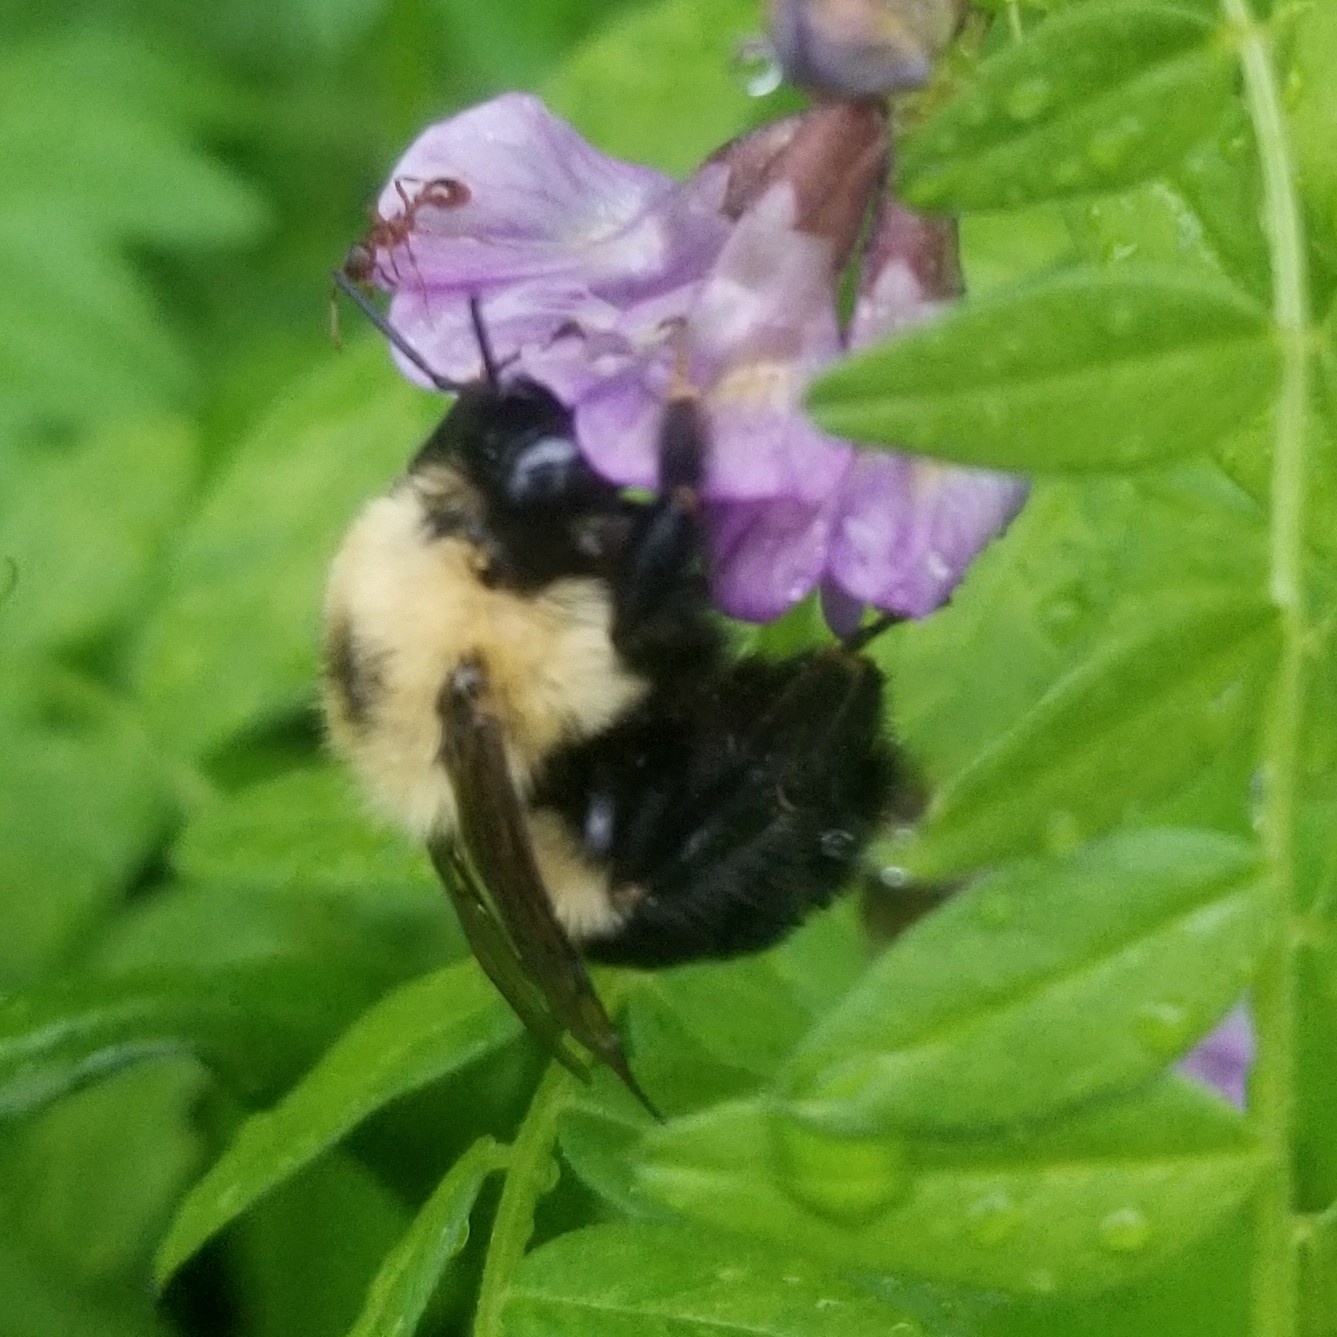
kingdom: Animalia
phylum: Arthropoda
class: Insecta
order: Hymenoptera
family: Apidae
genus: Bombus
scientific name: Bombus bimaculatus
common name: Two-spotted bumble bee
